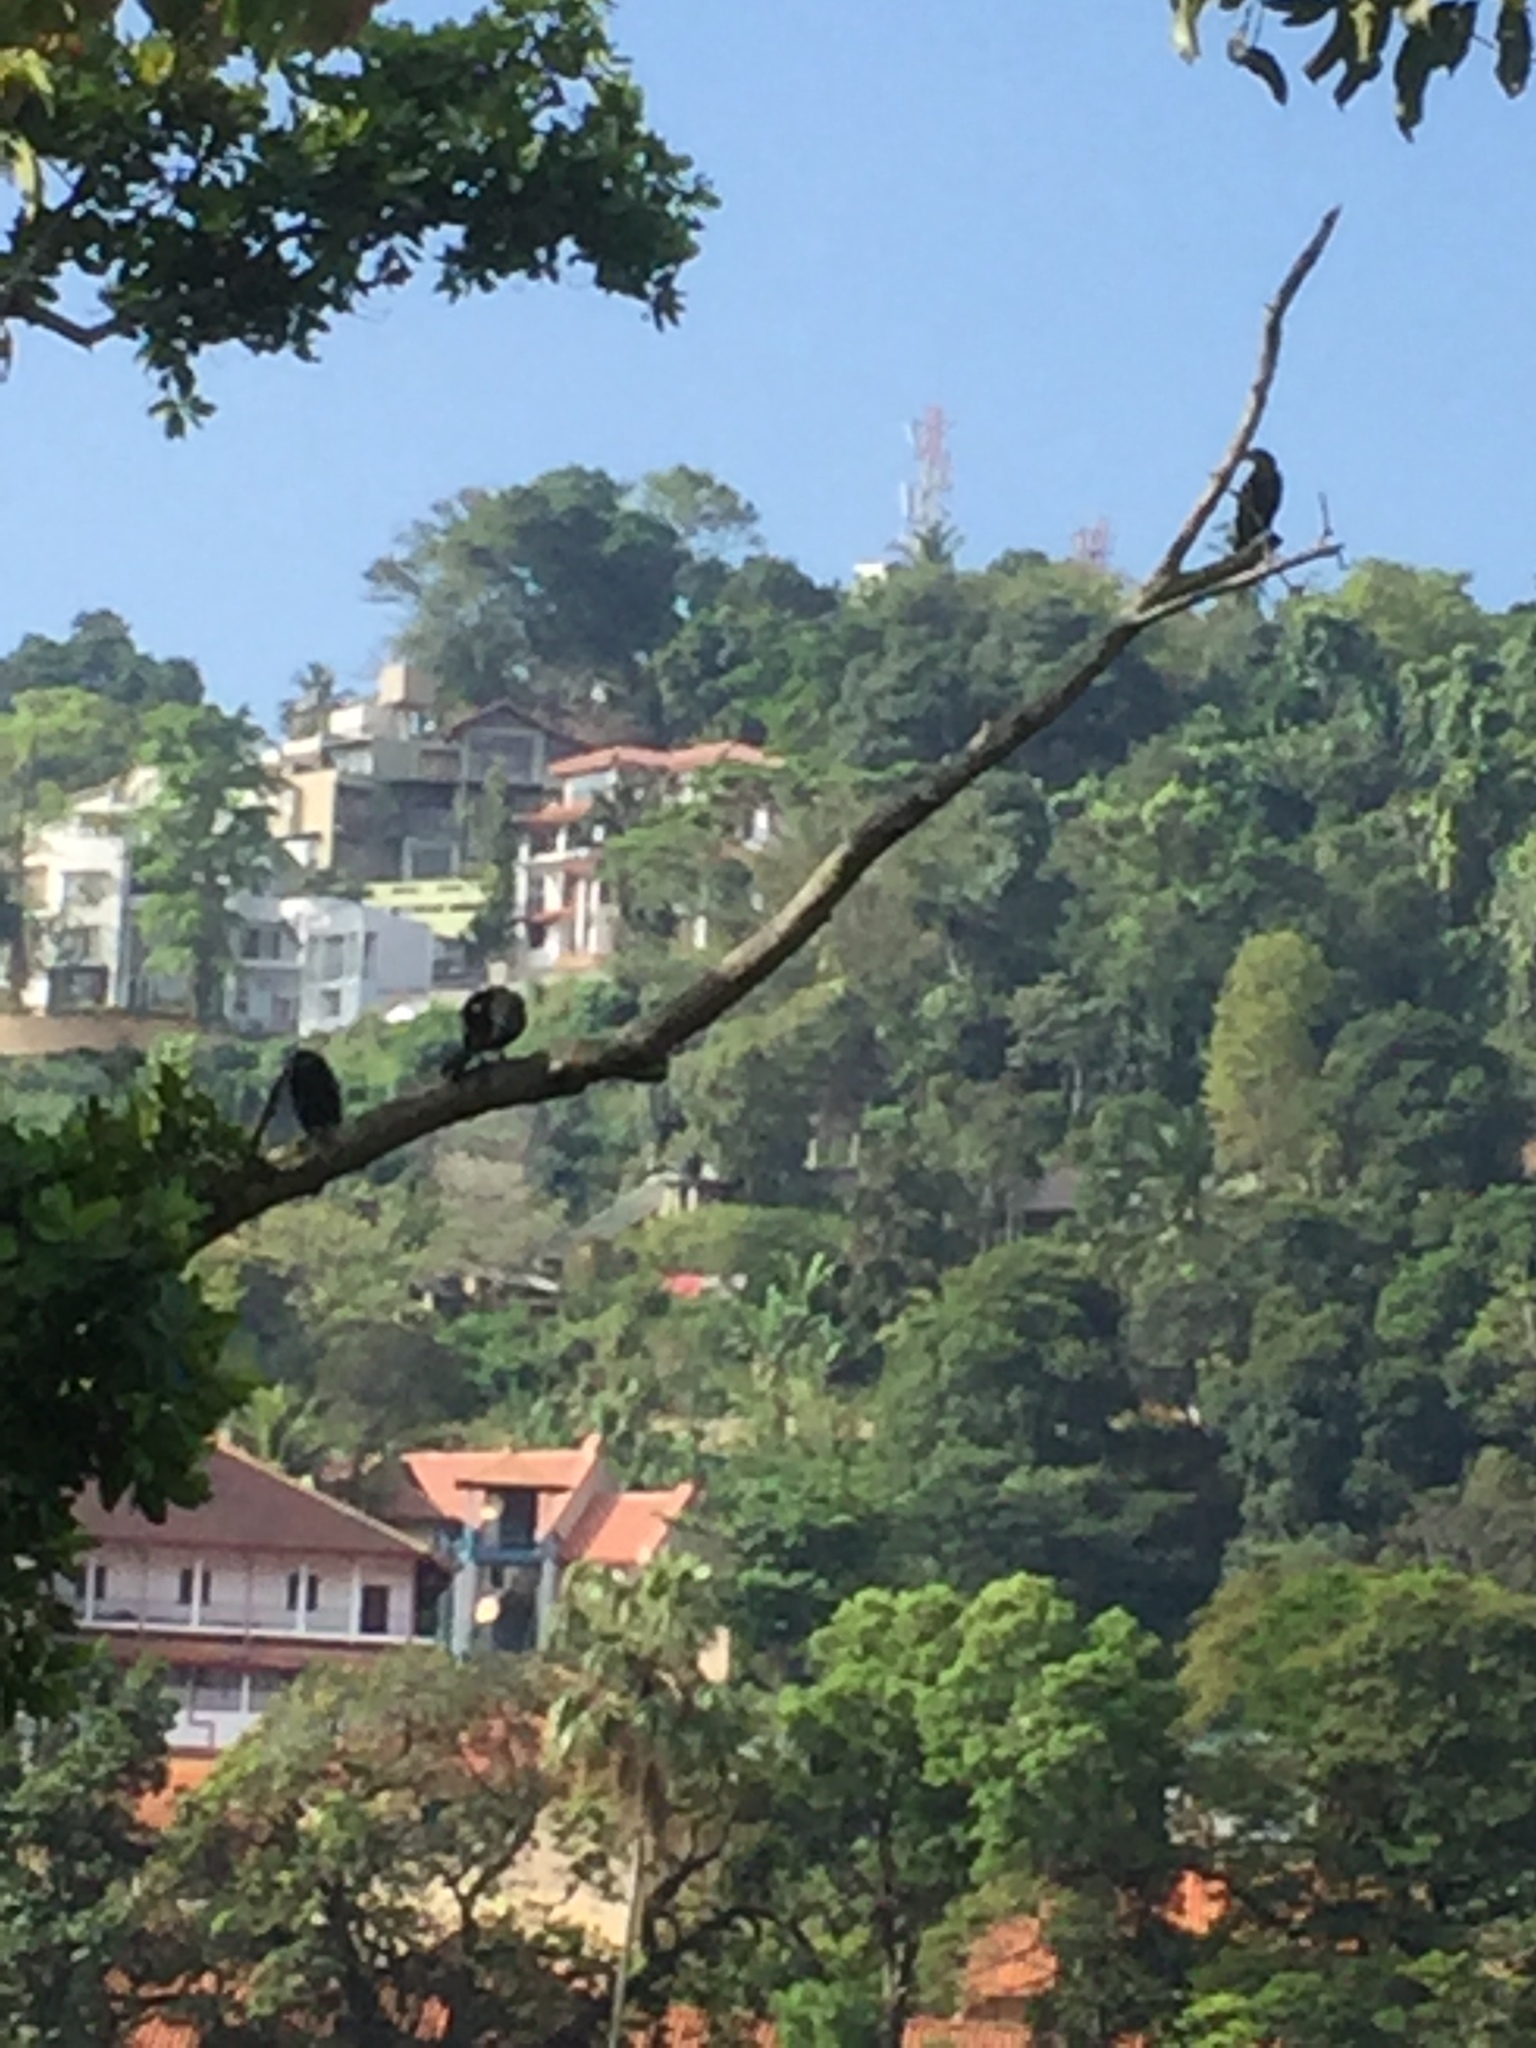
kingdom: Animalia
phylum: Chordata
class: Aves
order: Suliformes
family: Phalacrocoracidae
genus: Phalacrocorax
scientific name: Phalacrocorax fuscicollis
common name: Indian cormorant
